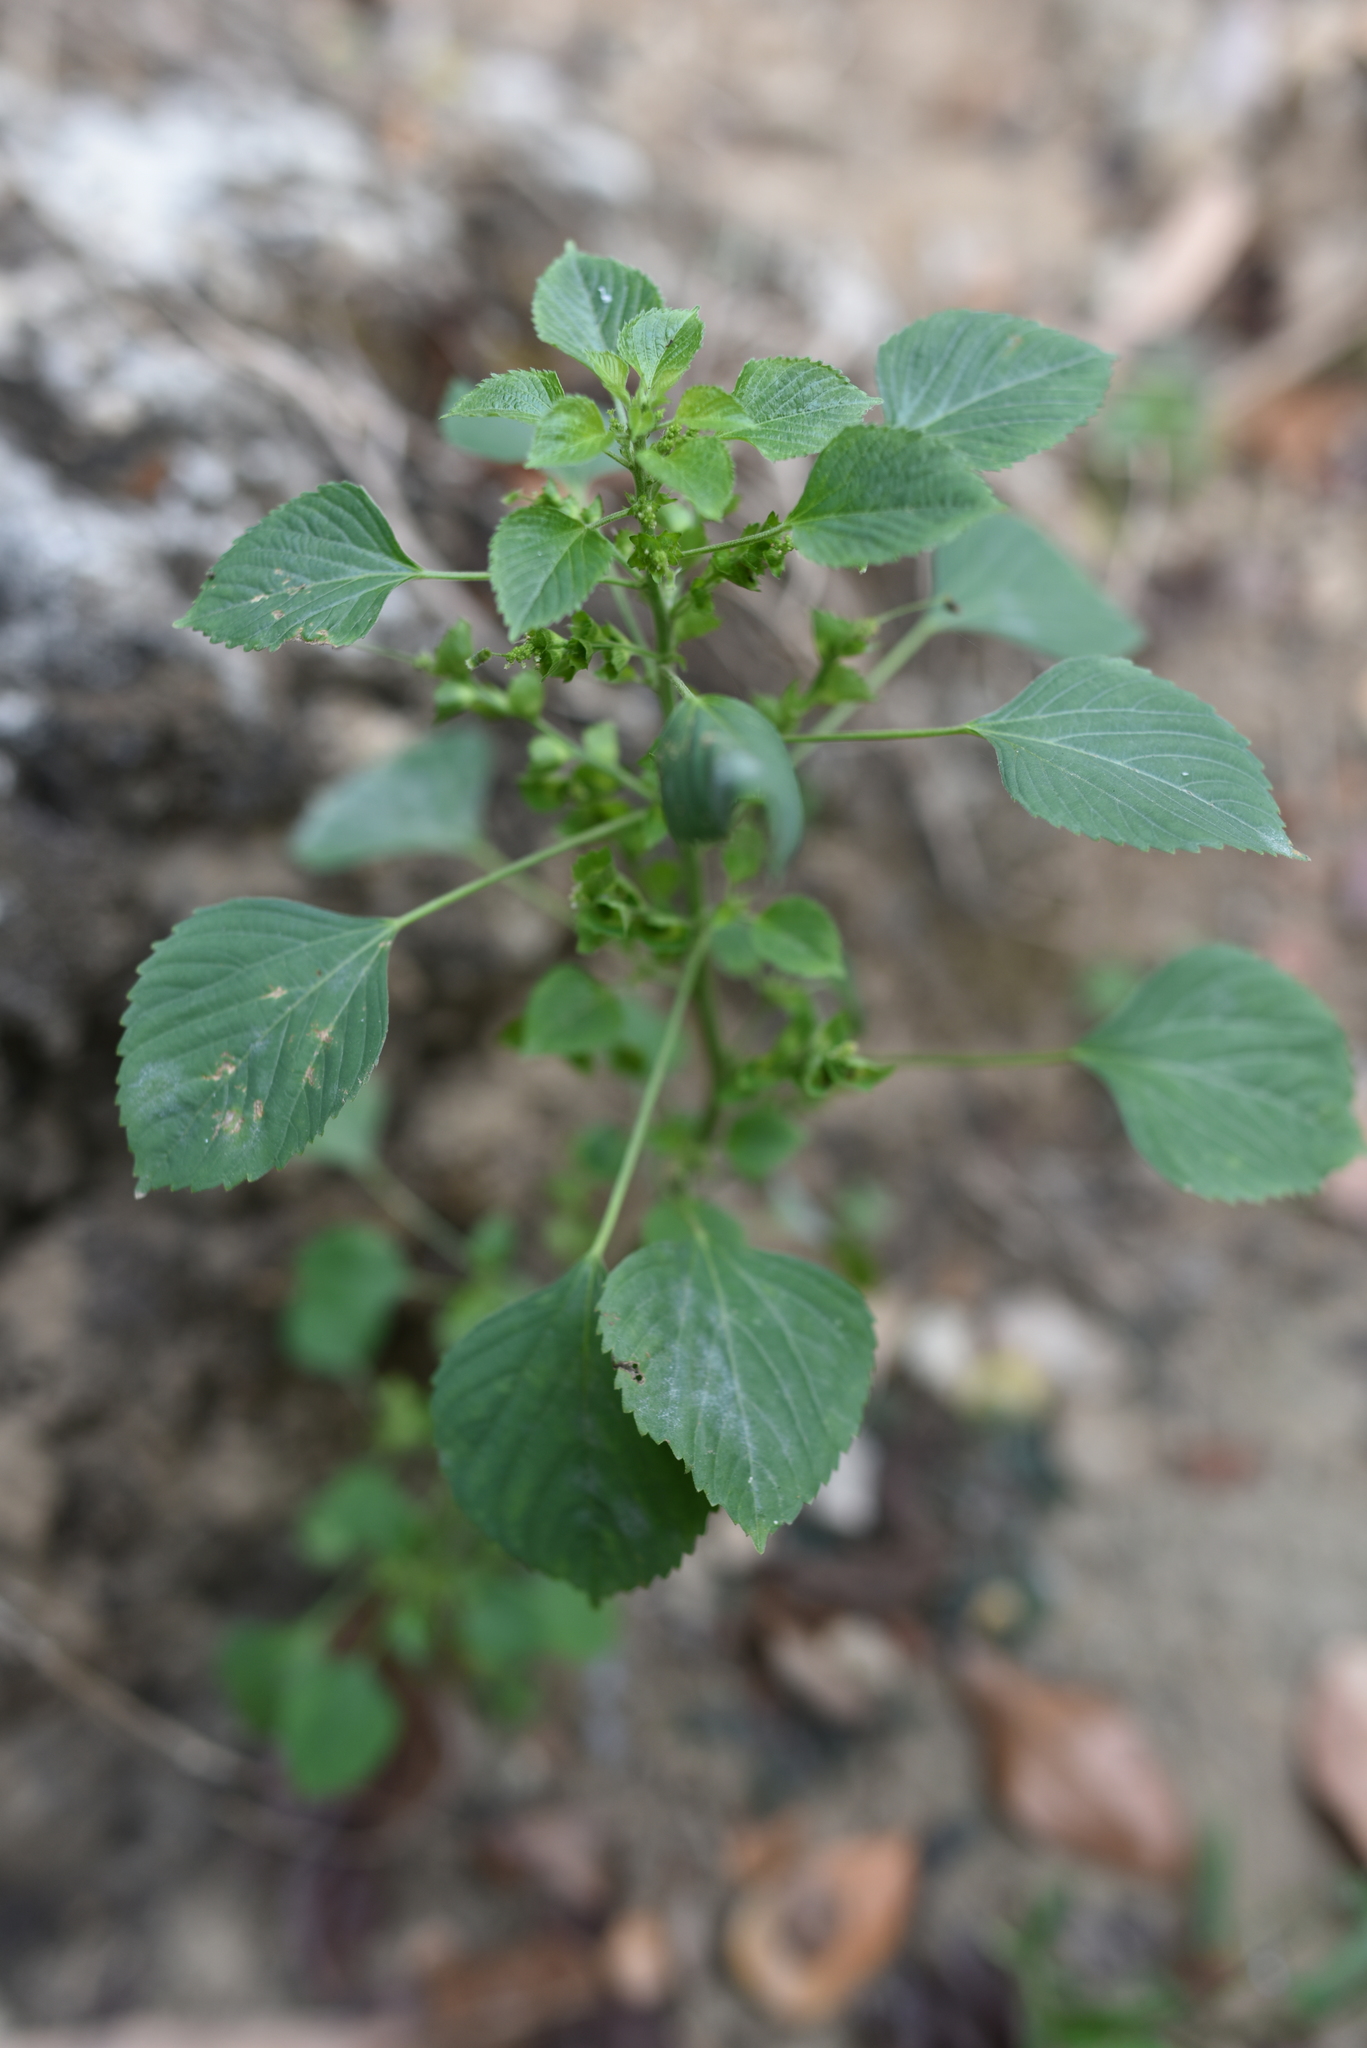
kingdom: Plantae
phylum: Tracheophyta
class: Magnoliopsida
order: Malpighiales
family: Euphorbiaceae
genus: Acalypha
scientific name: Acalypha indica
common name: Indian acalypha
